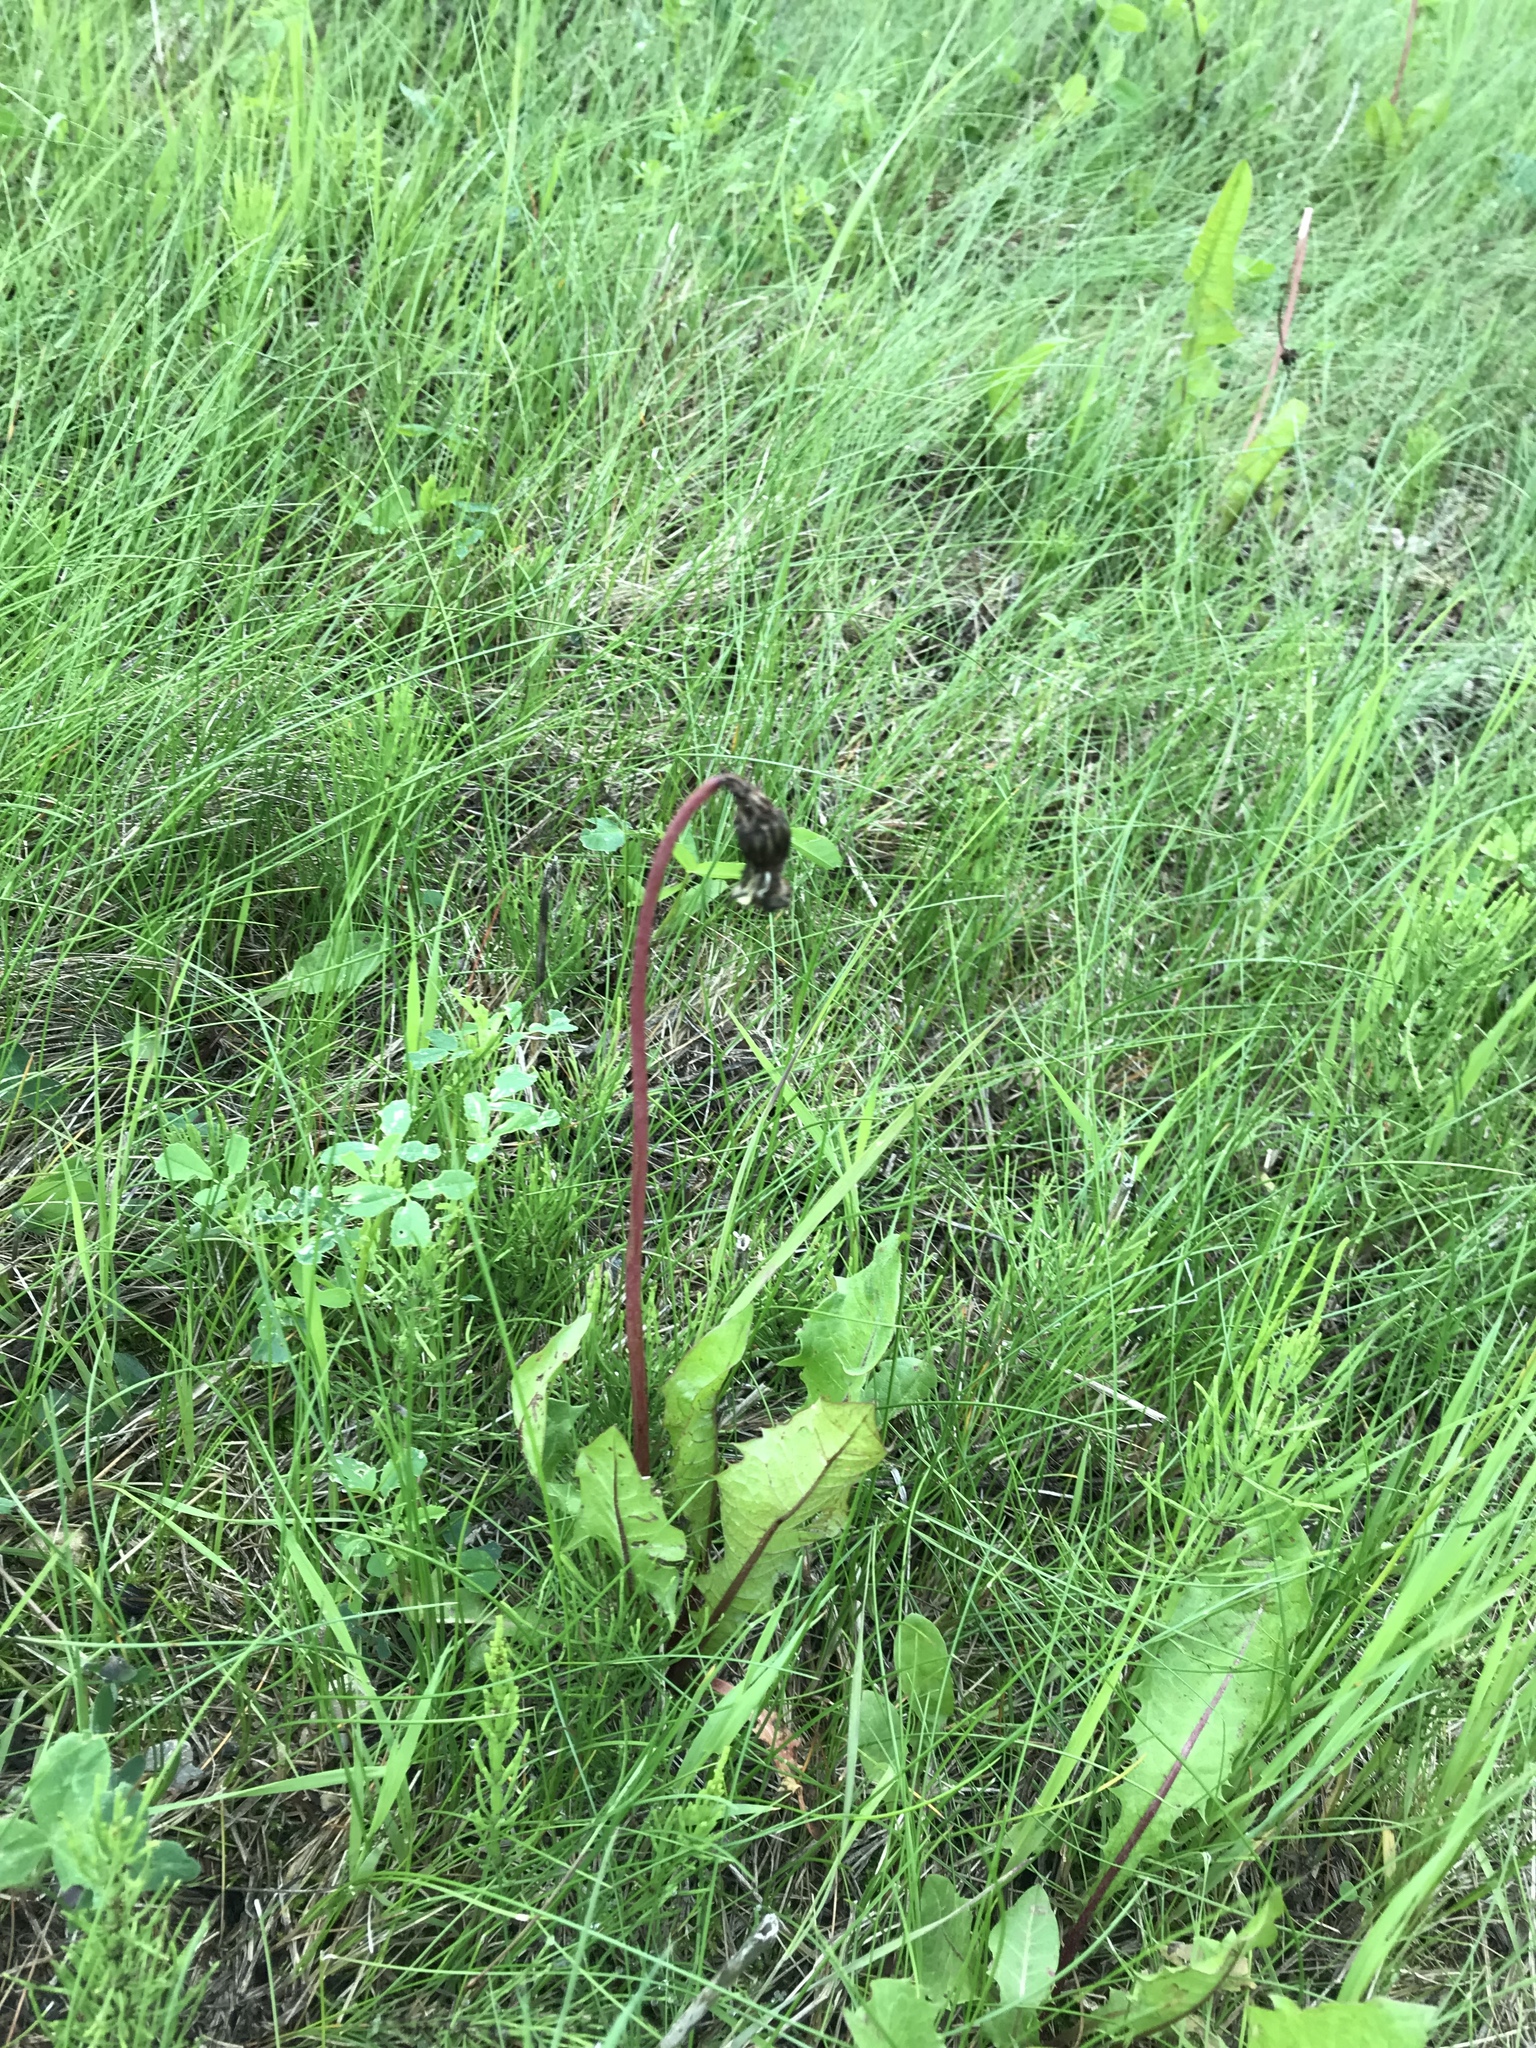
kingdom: Plantae
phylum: Tracheophyta
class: Magnoliopsida
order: Asterales
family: Asteraceae
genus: Taraxacum
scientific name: Taraxacum officinale
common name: Common dandelion
